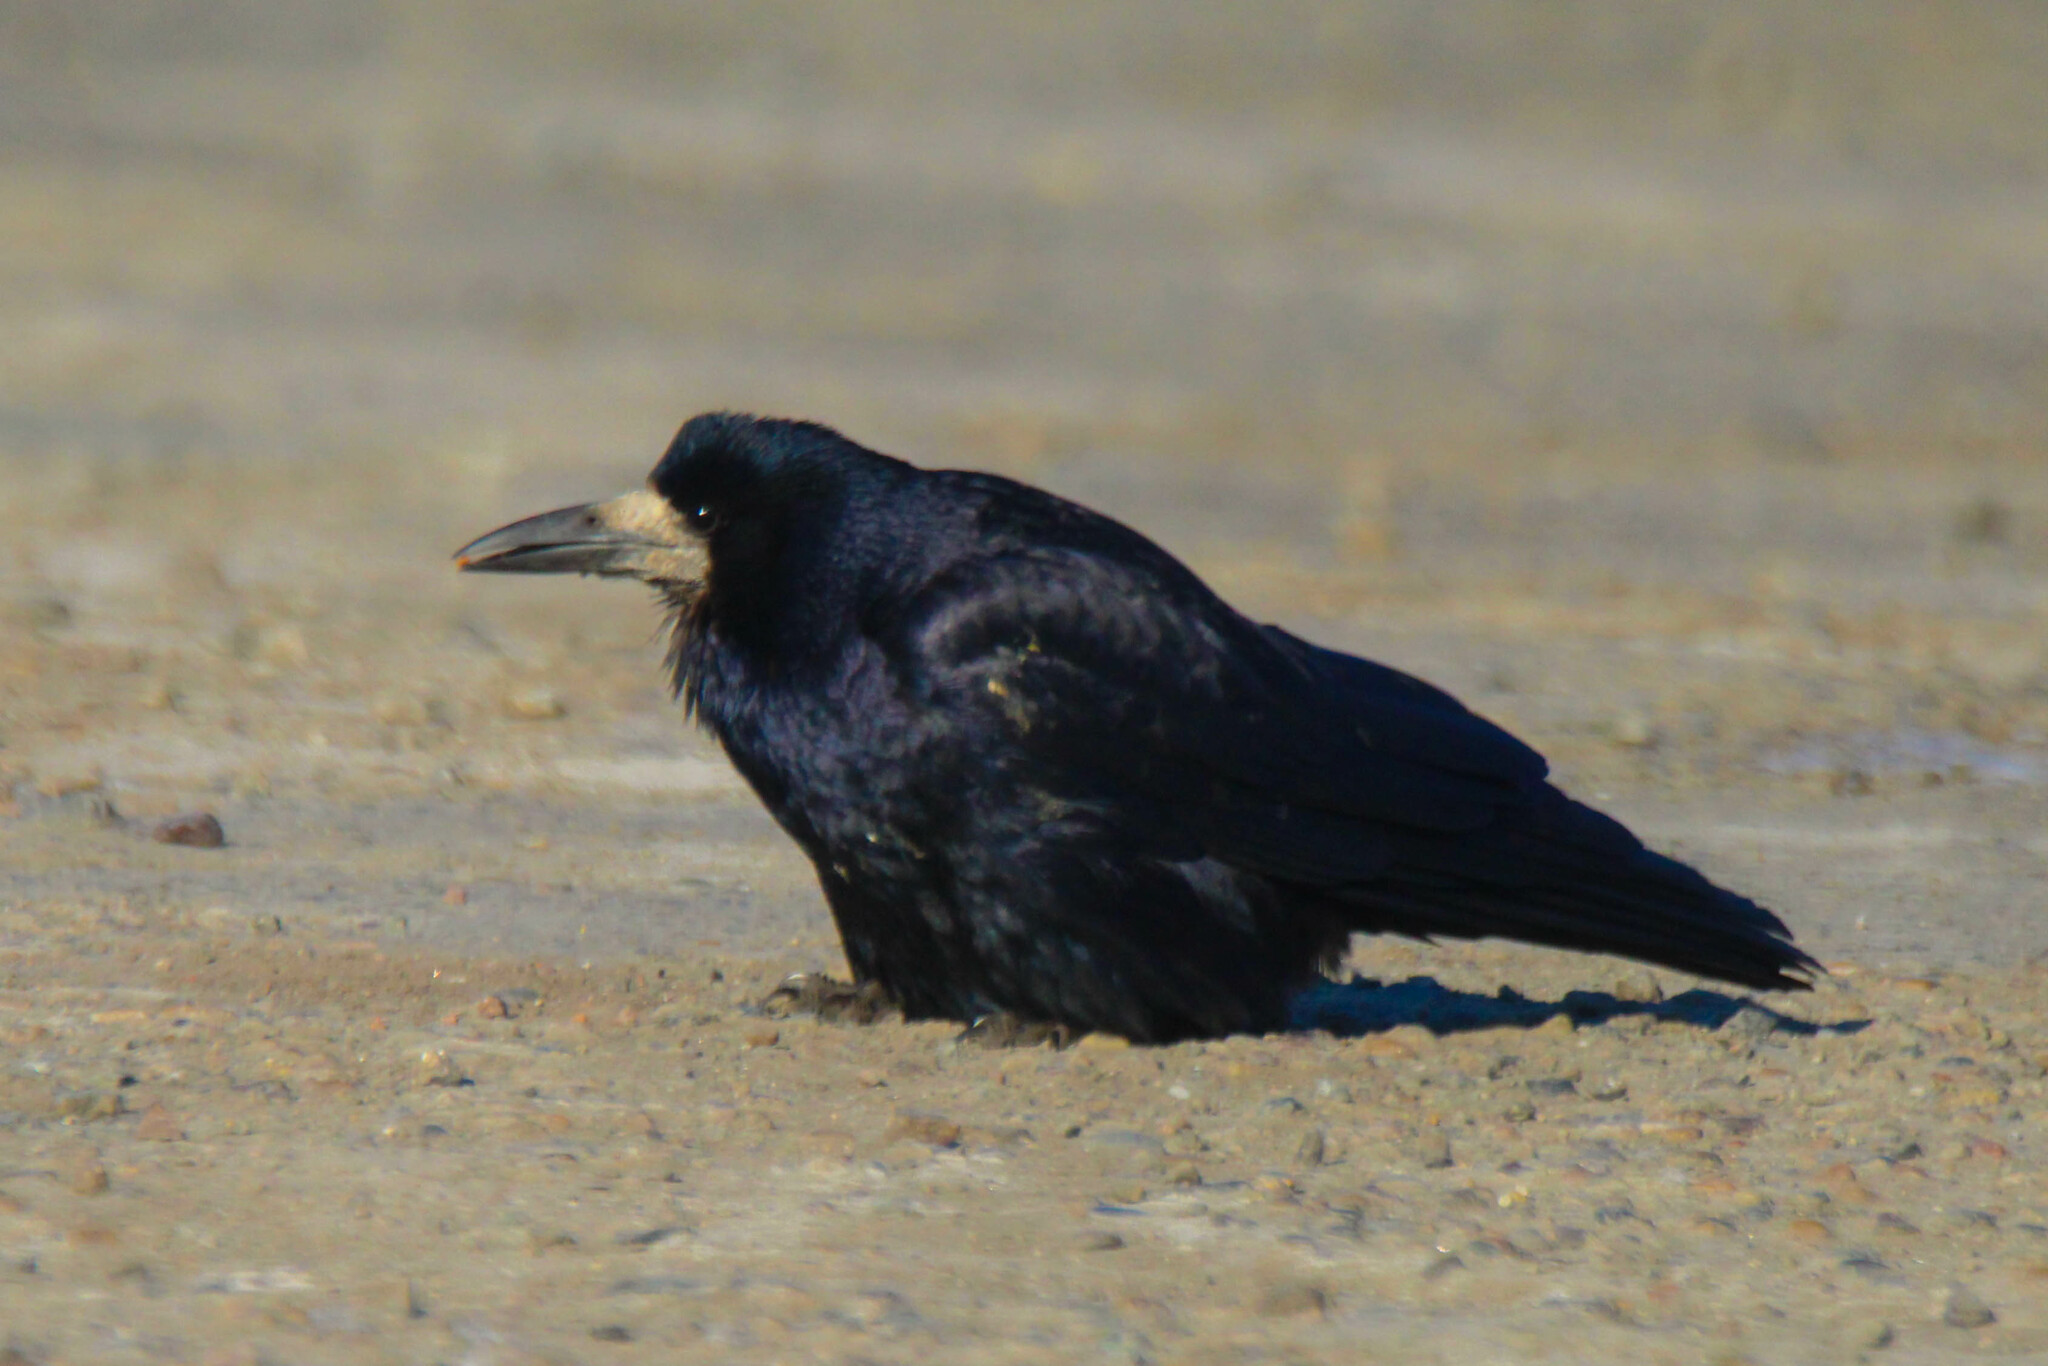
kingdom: Animalia
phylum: Chordata
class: Aves
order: Passeriformes
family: Corvidae
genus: Corvus
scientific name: Corvus frugilegus
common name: Rook
